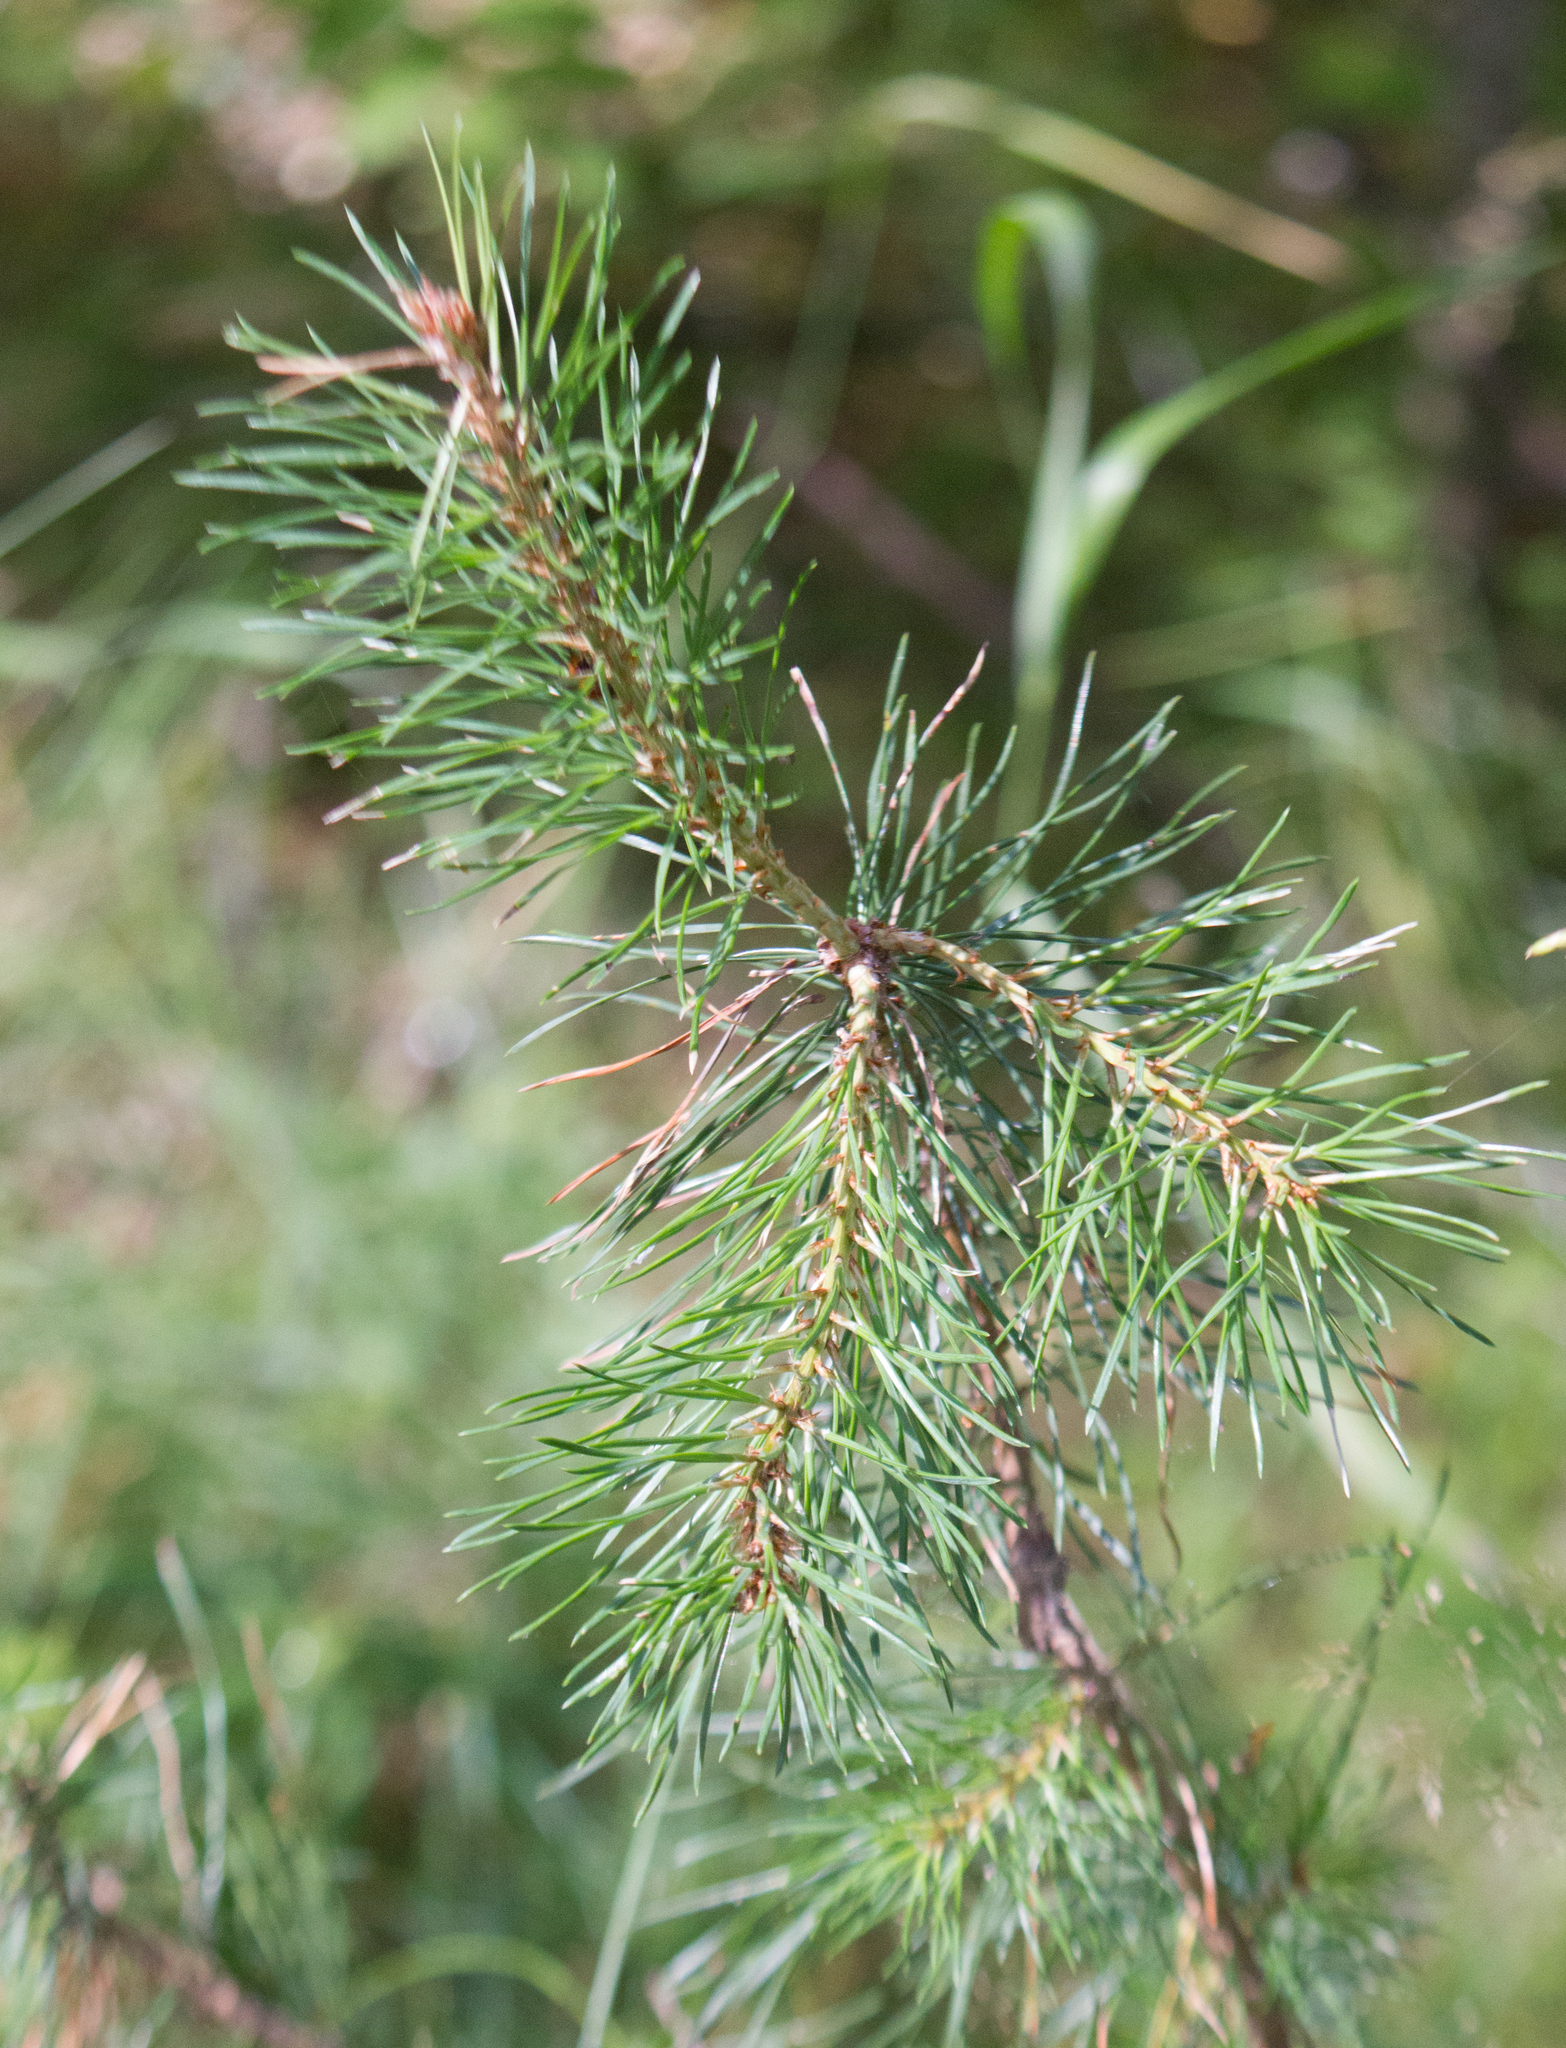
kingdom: Plantae
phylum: Tracheophyta
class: Pinopsida
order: Pinales
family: Pinaceae
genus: Pinus
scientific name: Pinus sylvestris
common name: Scots pine
